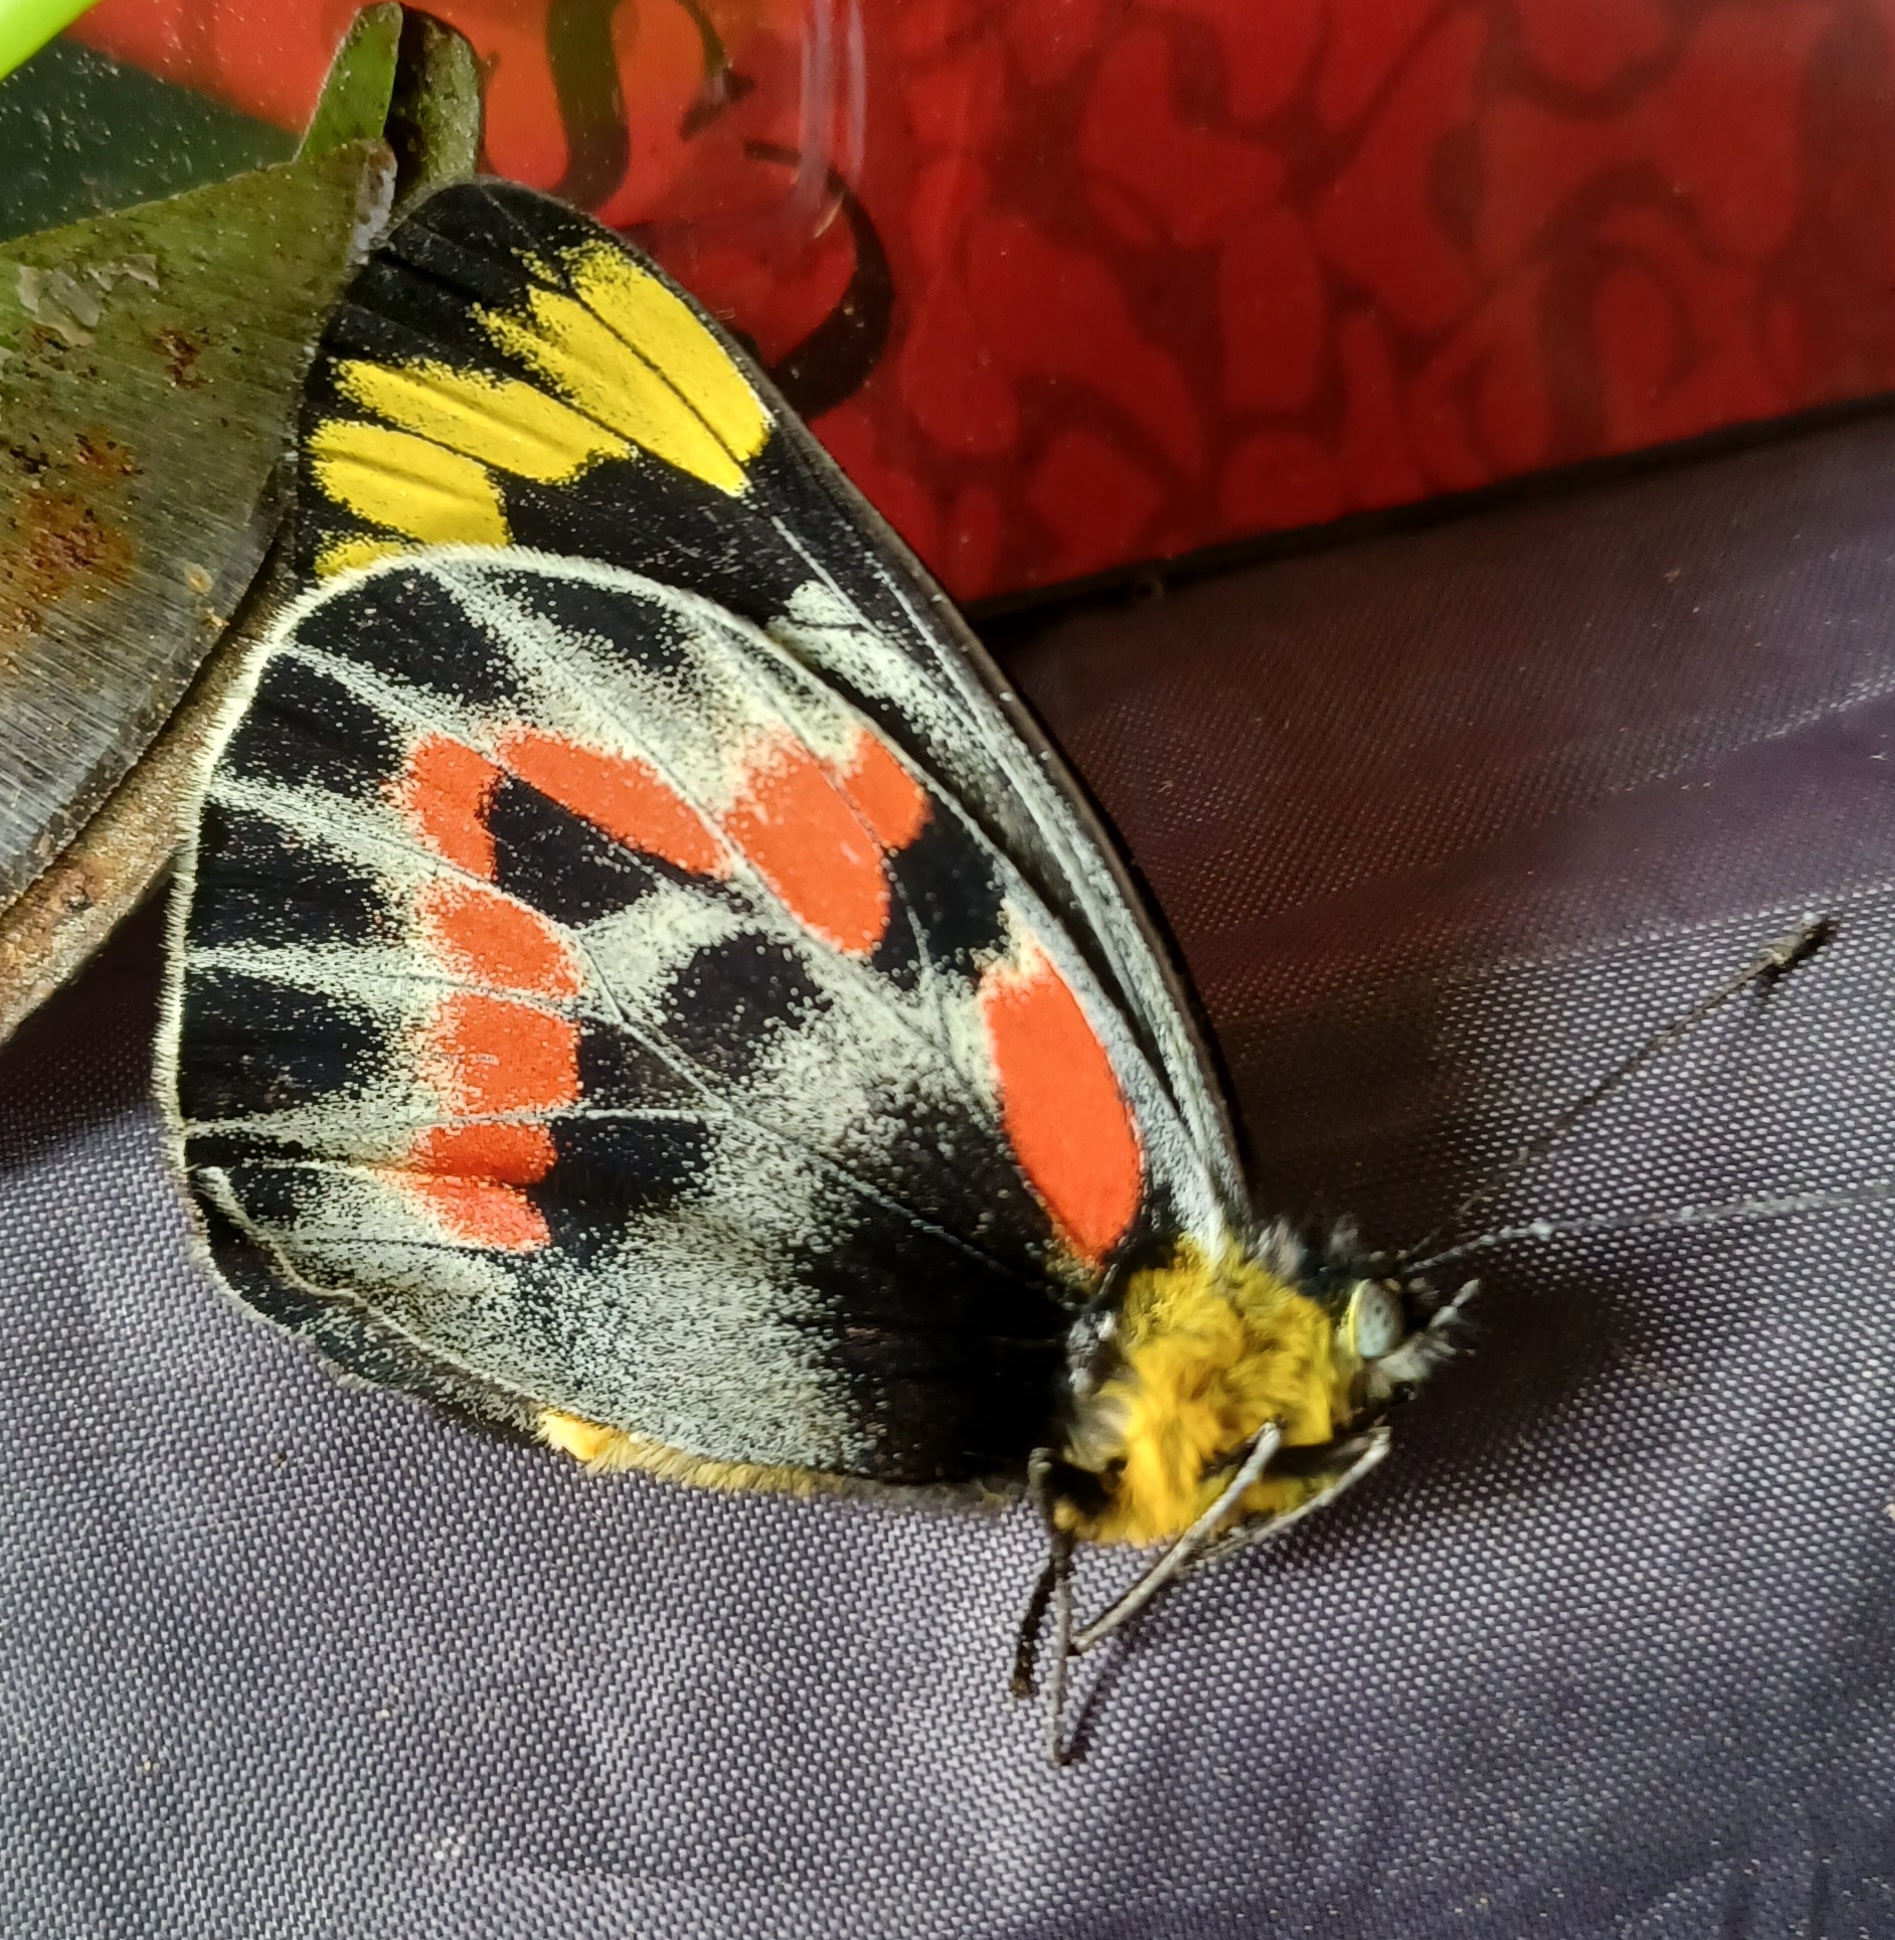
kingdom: Animalia
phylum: Arthropoda
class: Insecta
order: Lepidoptera
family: Pieridae
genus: Delias
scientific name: Delias harpalyce
